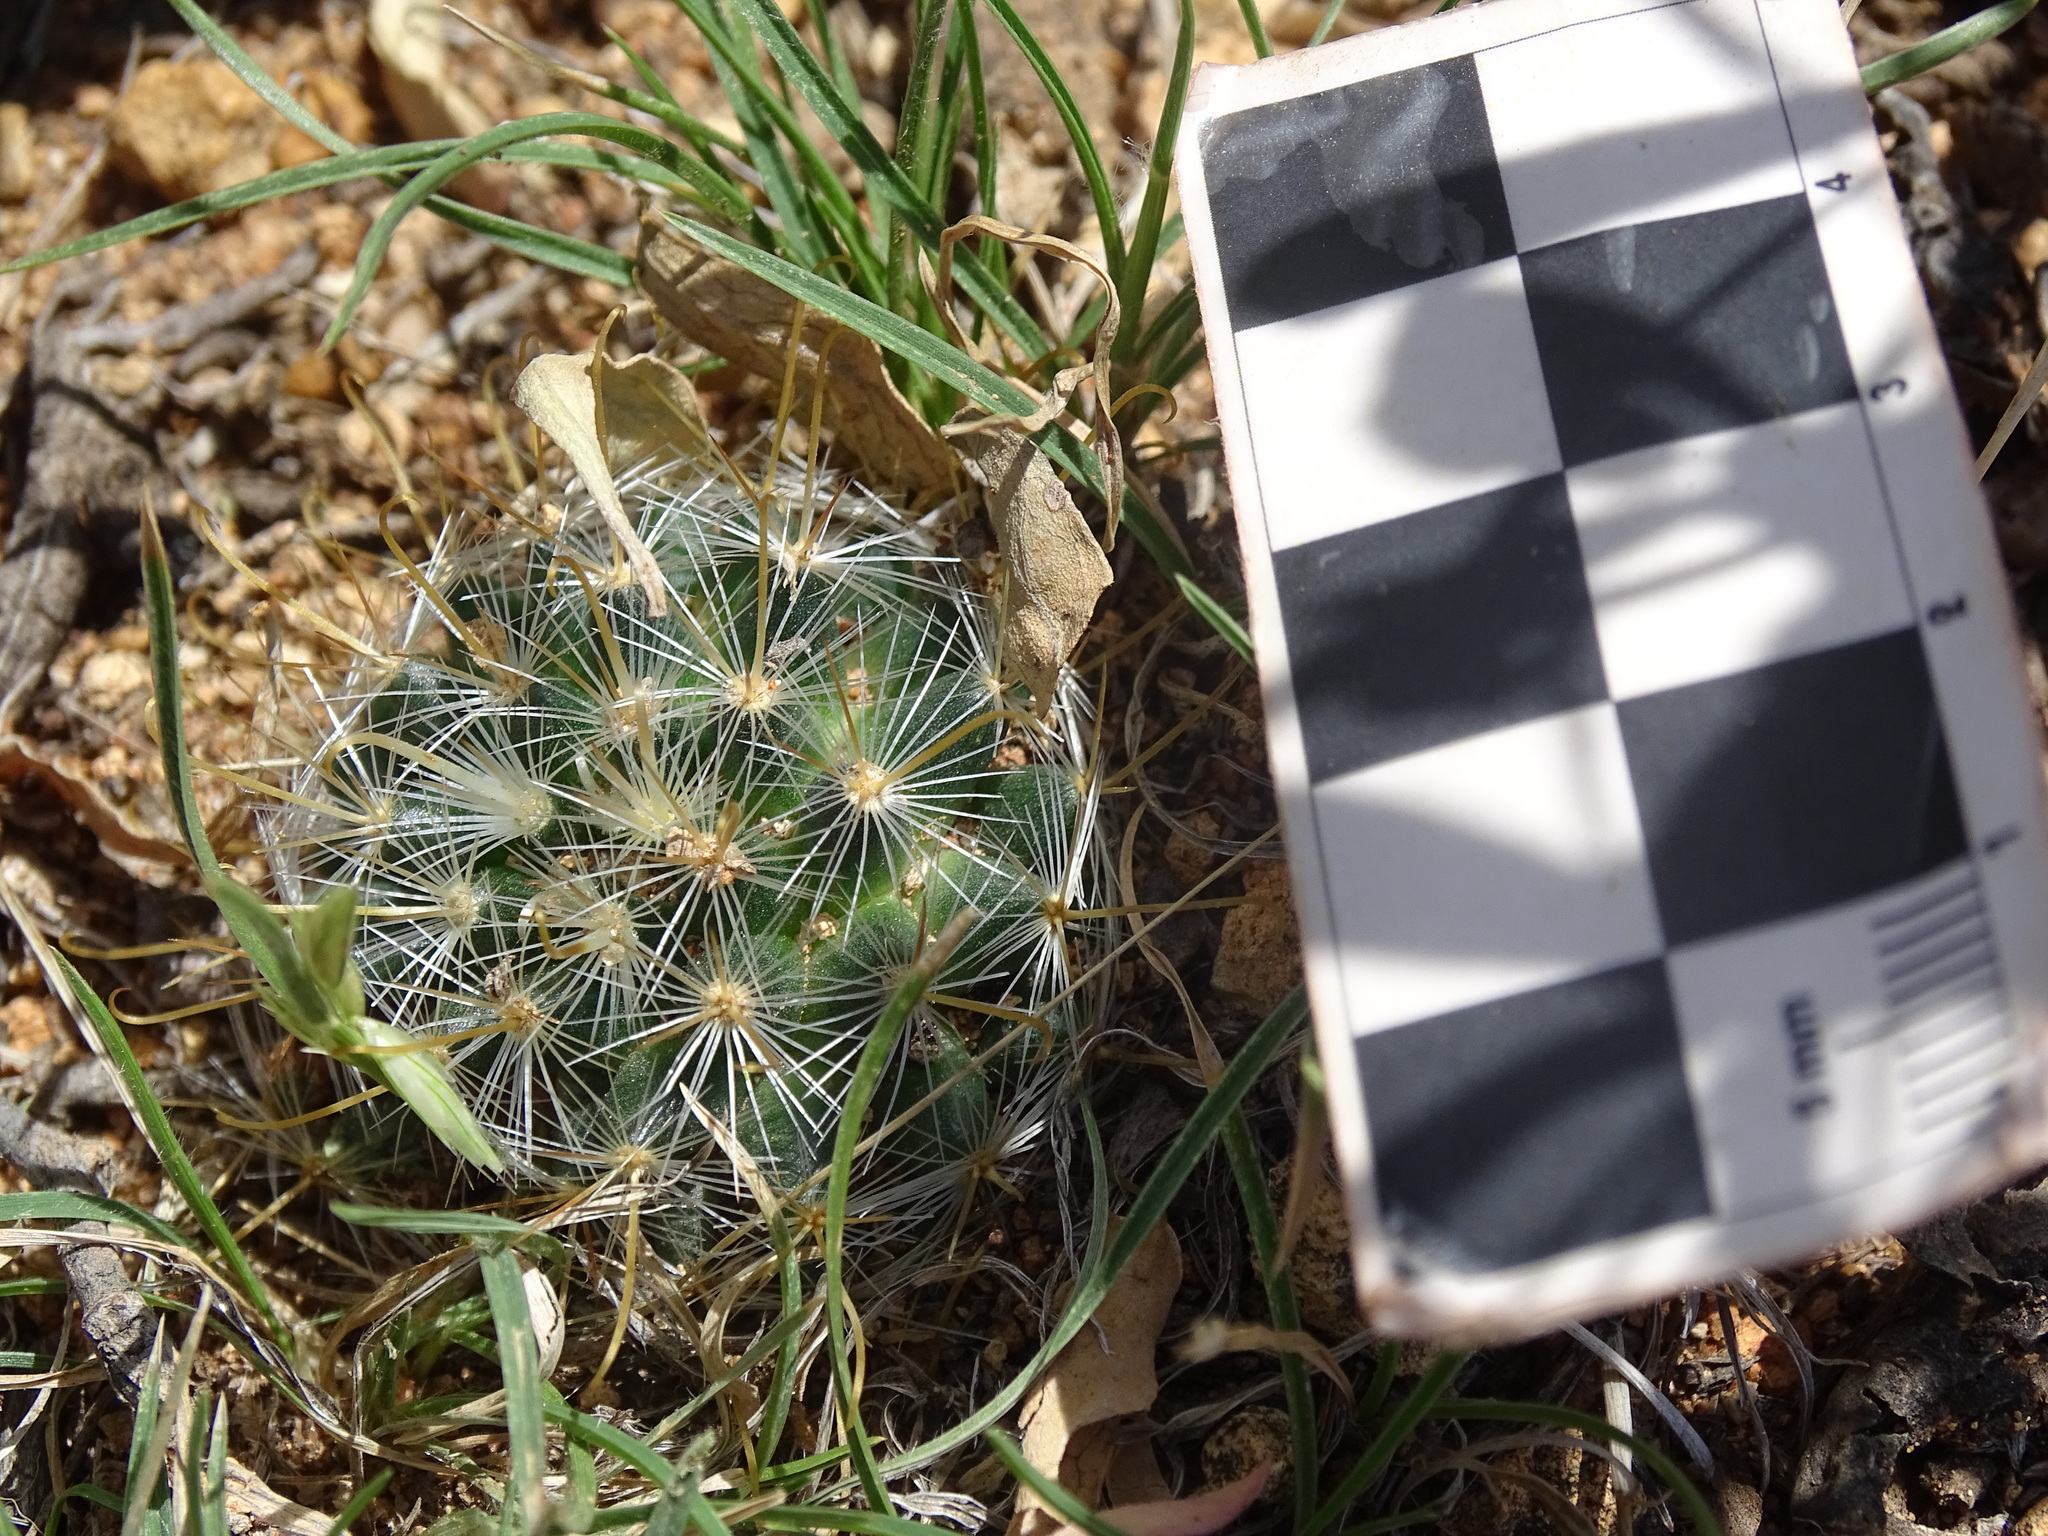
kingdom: Plantae
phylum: Tracheophyta
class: Magnoliopsida
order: Caryophyllales
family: Cactaceae
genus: Mammillaria
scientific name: Mammillaria jaliscana
